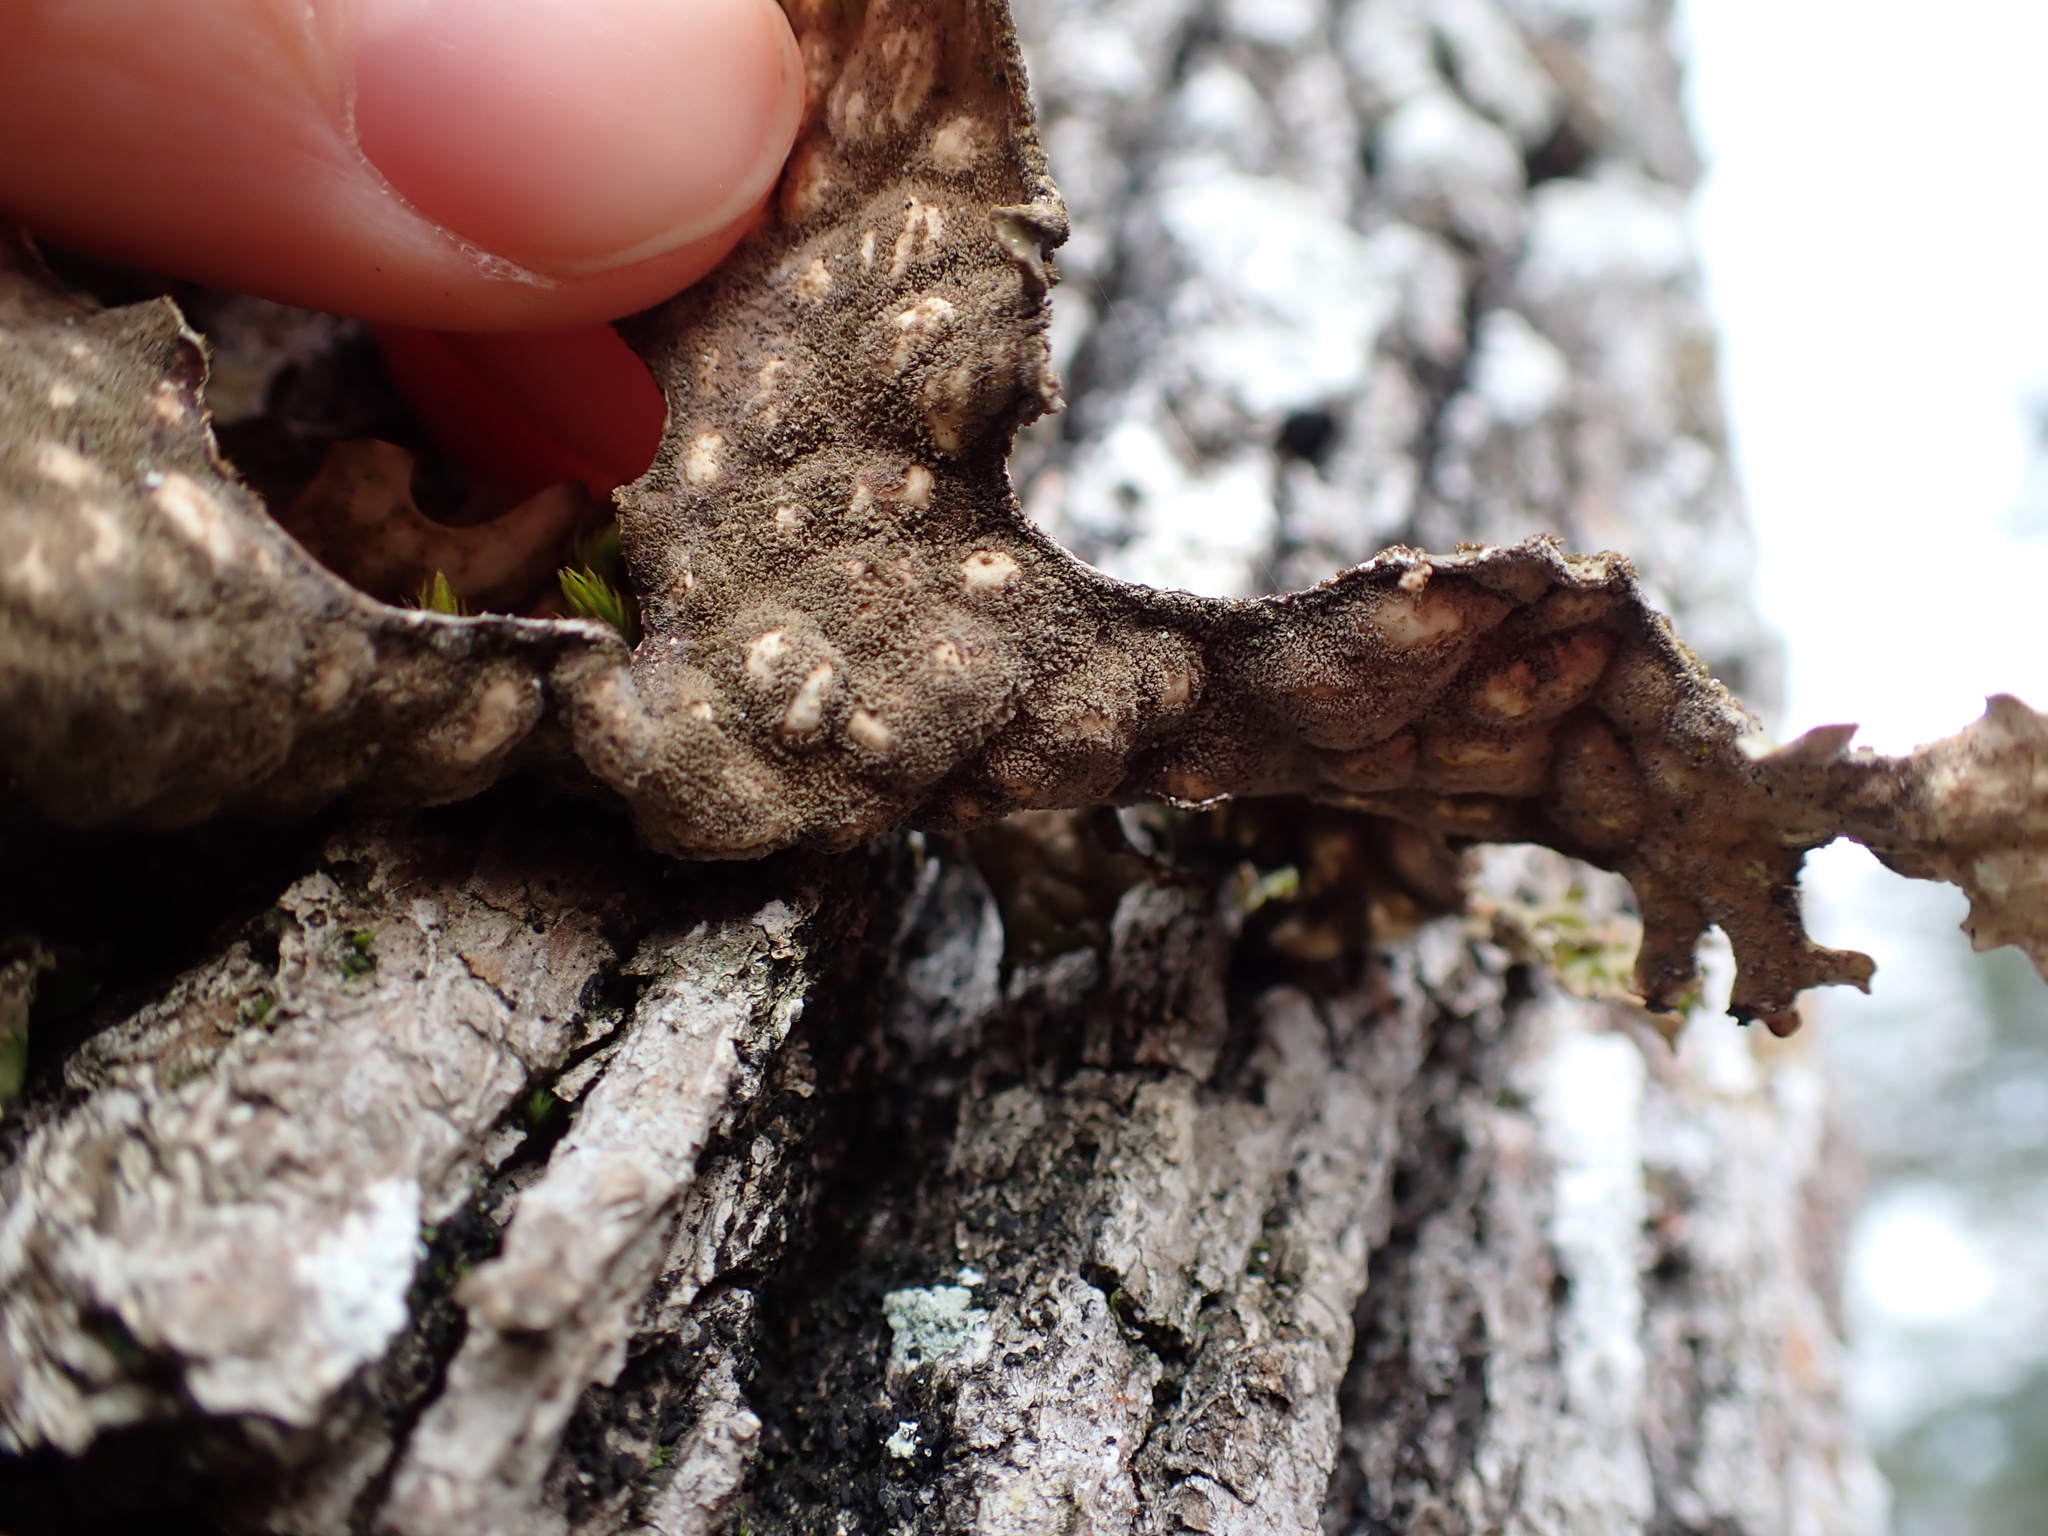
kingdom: Fungi
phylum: Ascomycota
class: Lecanoromycetes
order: Peltigerales
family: Lobariaceae
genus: Lobaria
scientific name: Lobaria pulmonaria
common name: Lungwort
